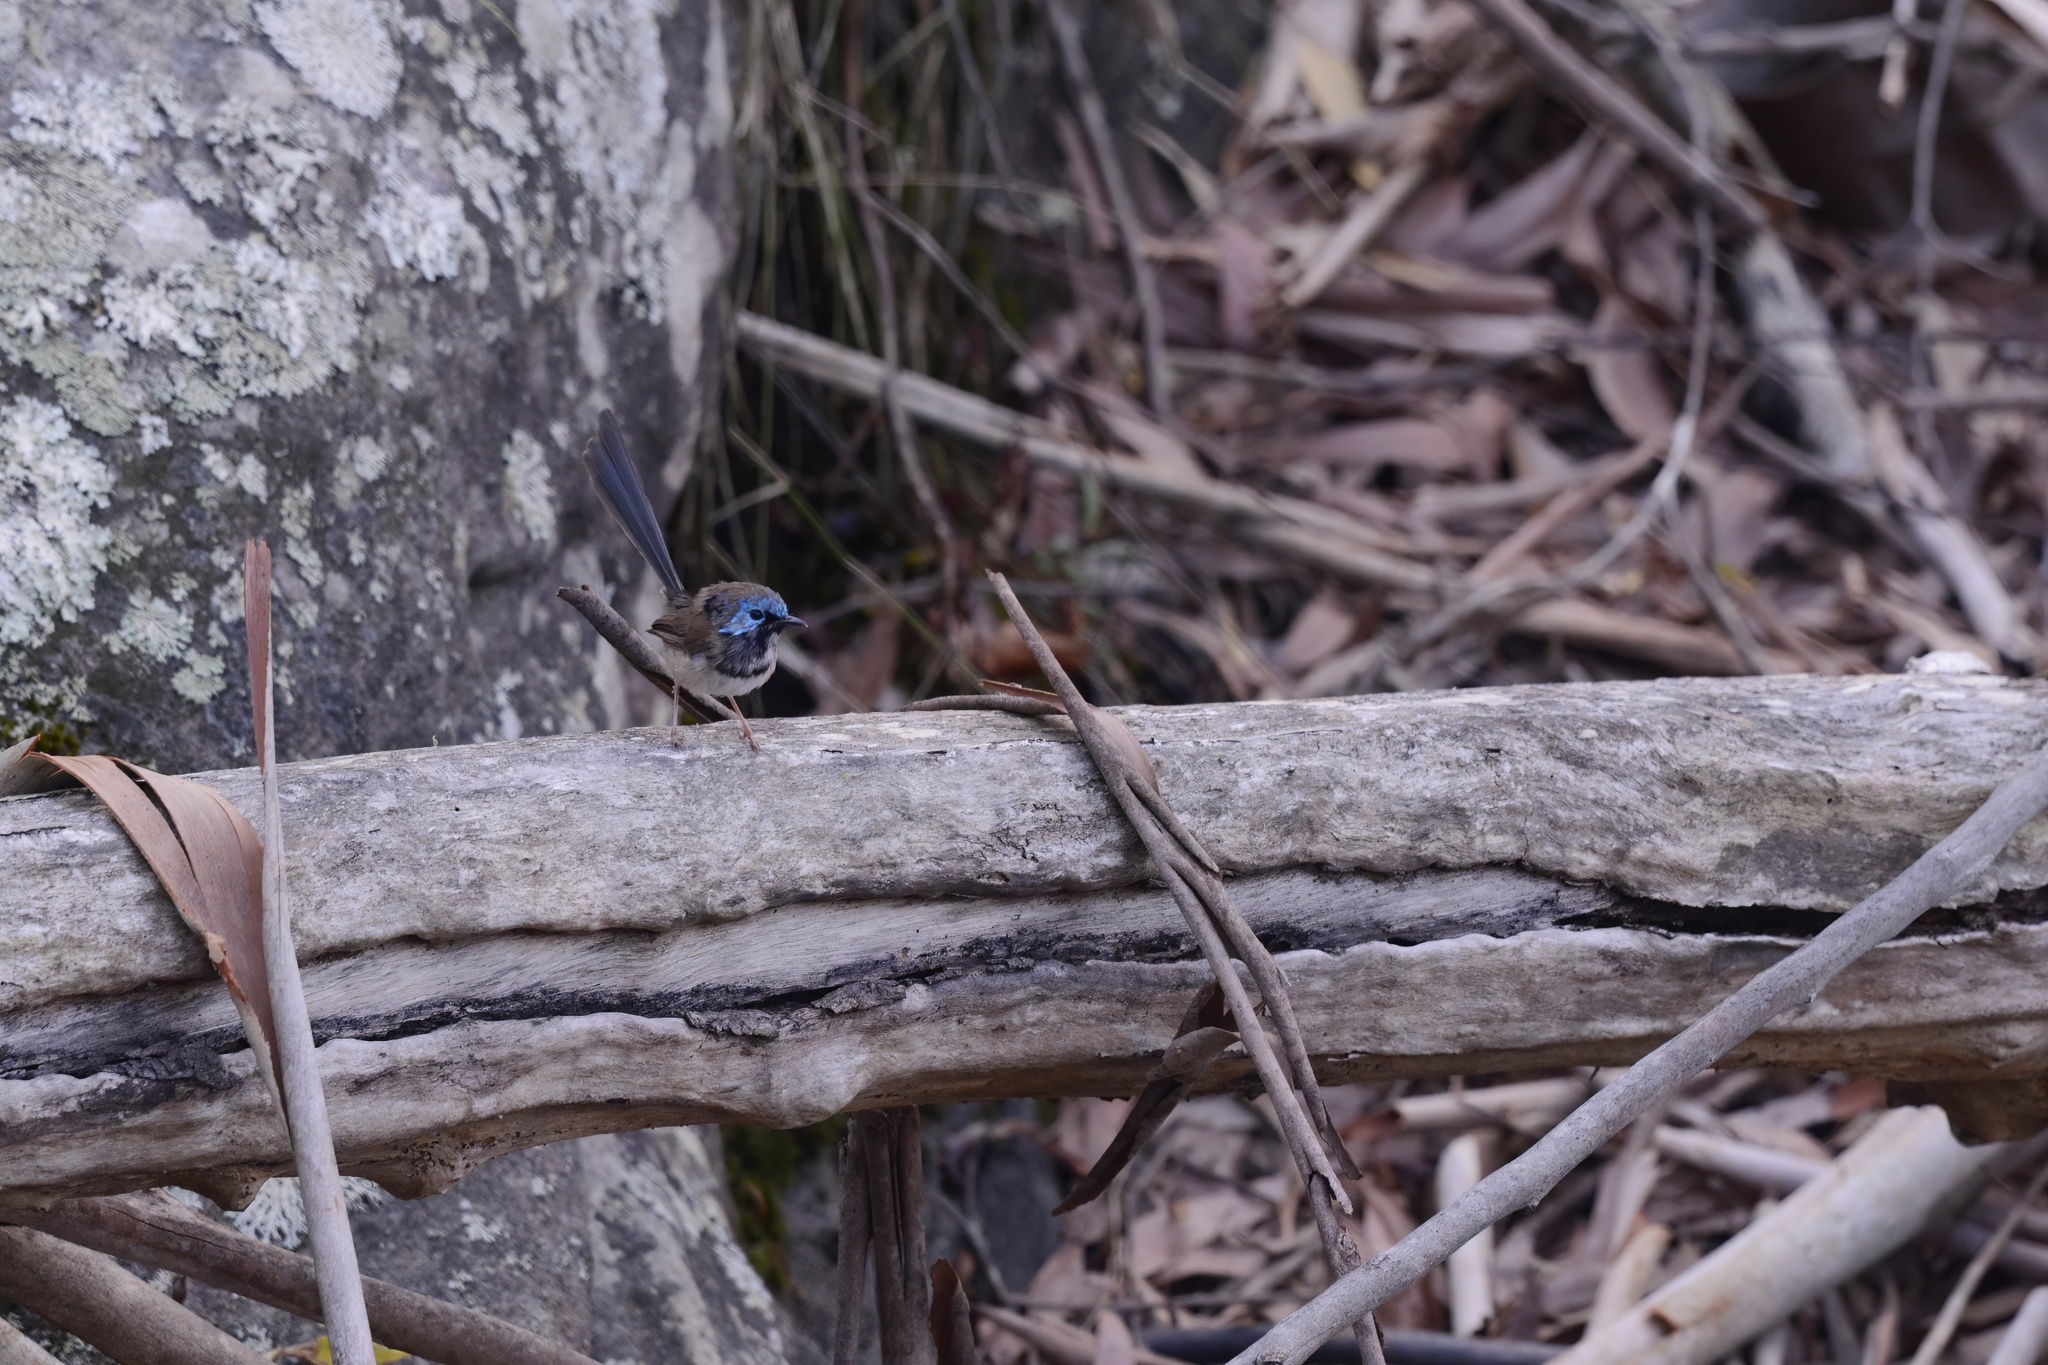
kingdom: Animalia
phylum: Chordata
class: Aves
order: Passeriformes
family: Maluridae
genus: Malurus
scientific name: Malurus lamberti
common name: Variegated fairywren
